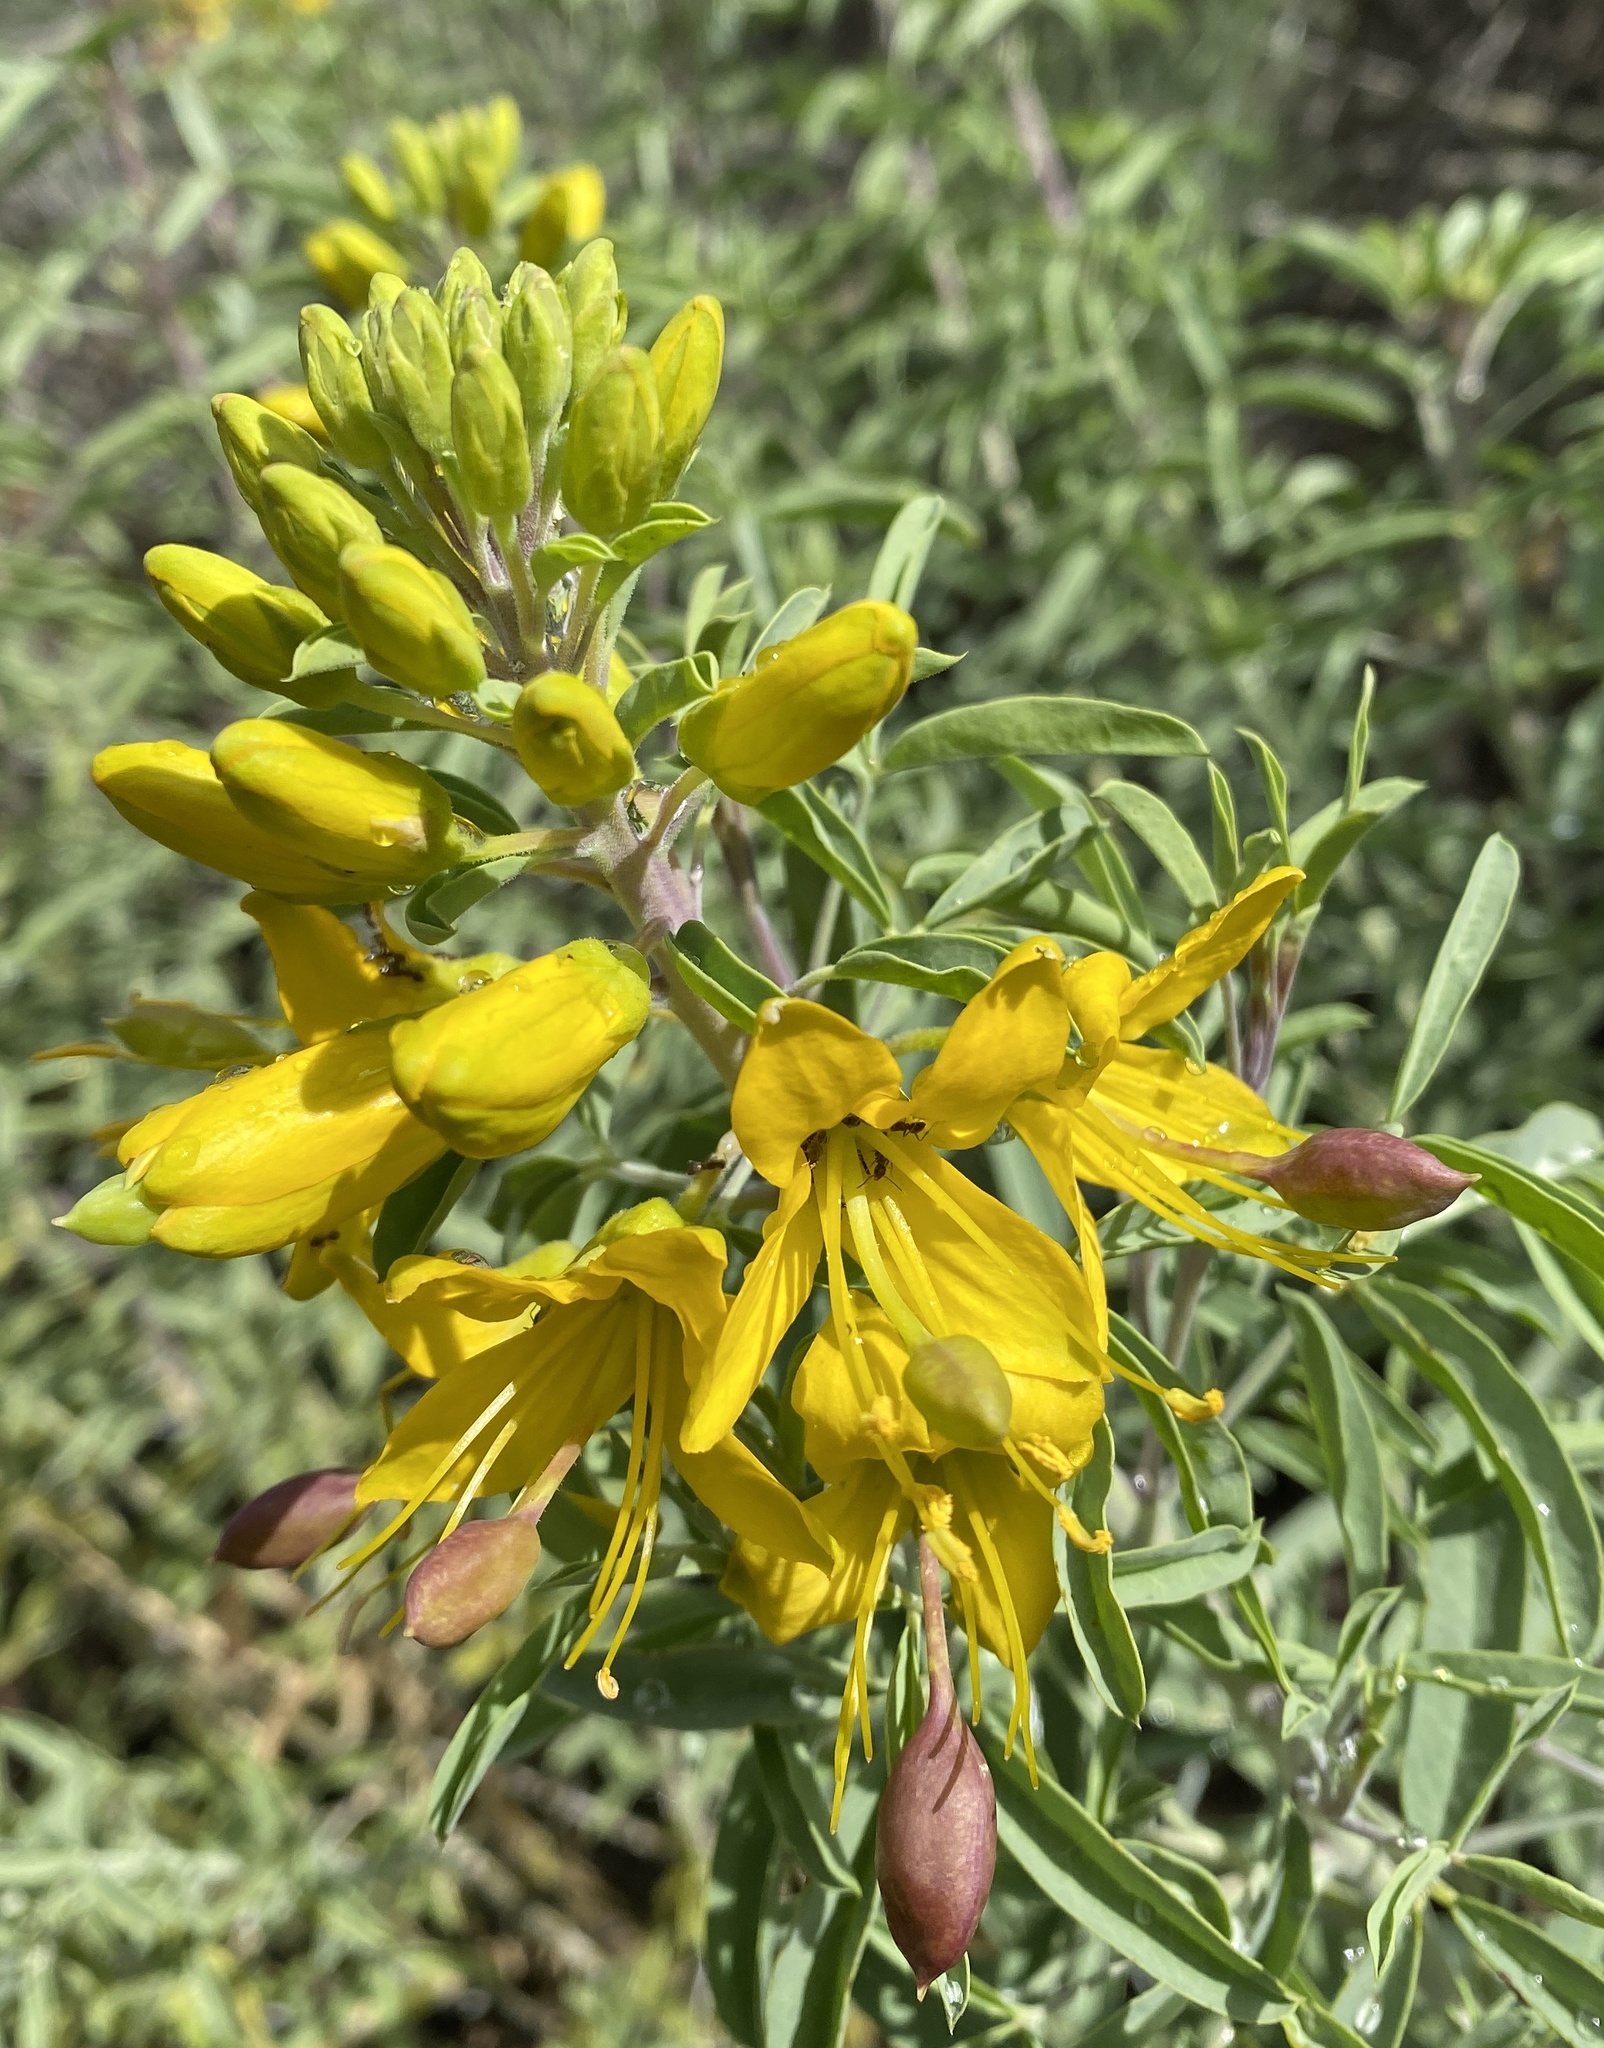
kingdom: Plantae
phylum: Tracheophyta
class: Magnoliopsida
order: Brassicales
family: Cleomaceae
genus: Cleomella
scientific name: Cleomella arborea
